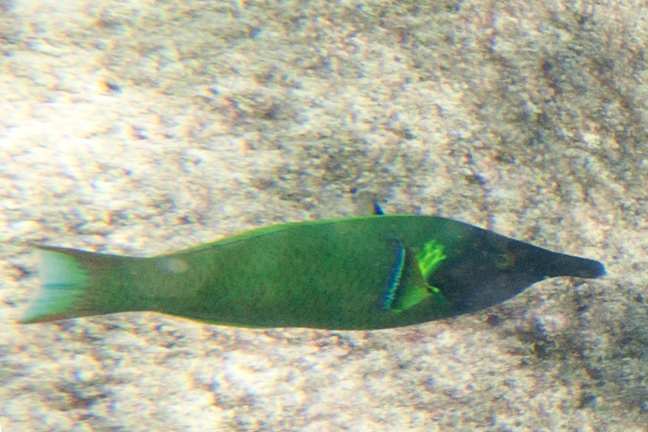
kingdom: Animalia
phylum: Chordata
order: Perciformes
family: Labridae
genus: Gomphosus
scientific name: Gomphosus varius
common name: Bird wrasse
